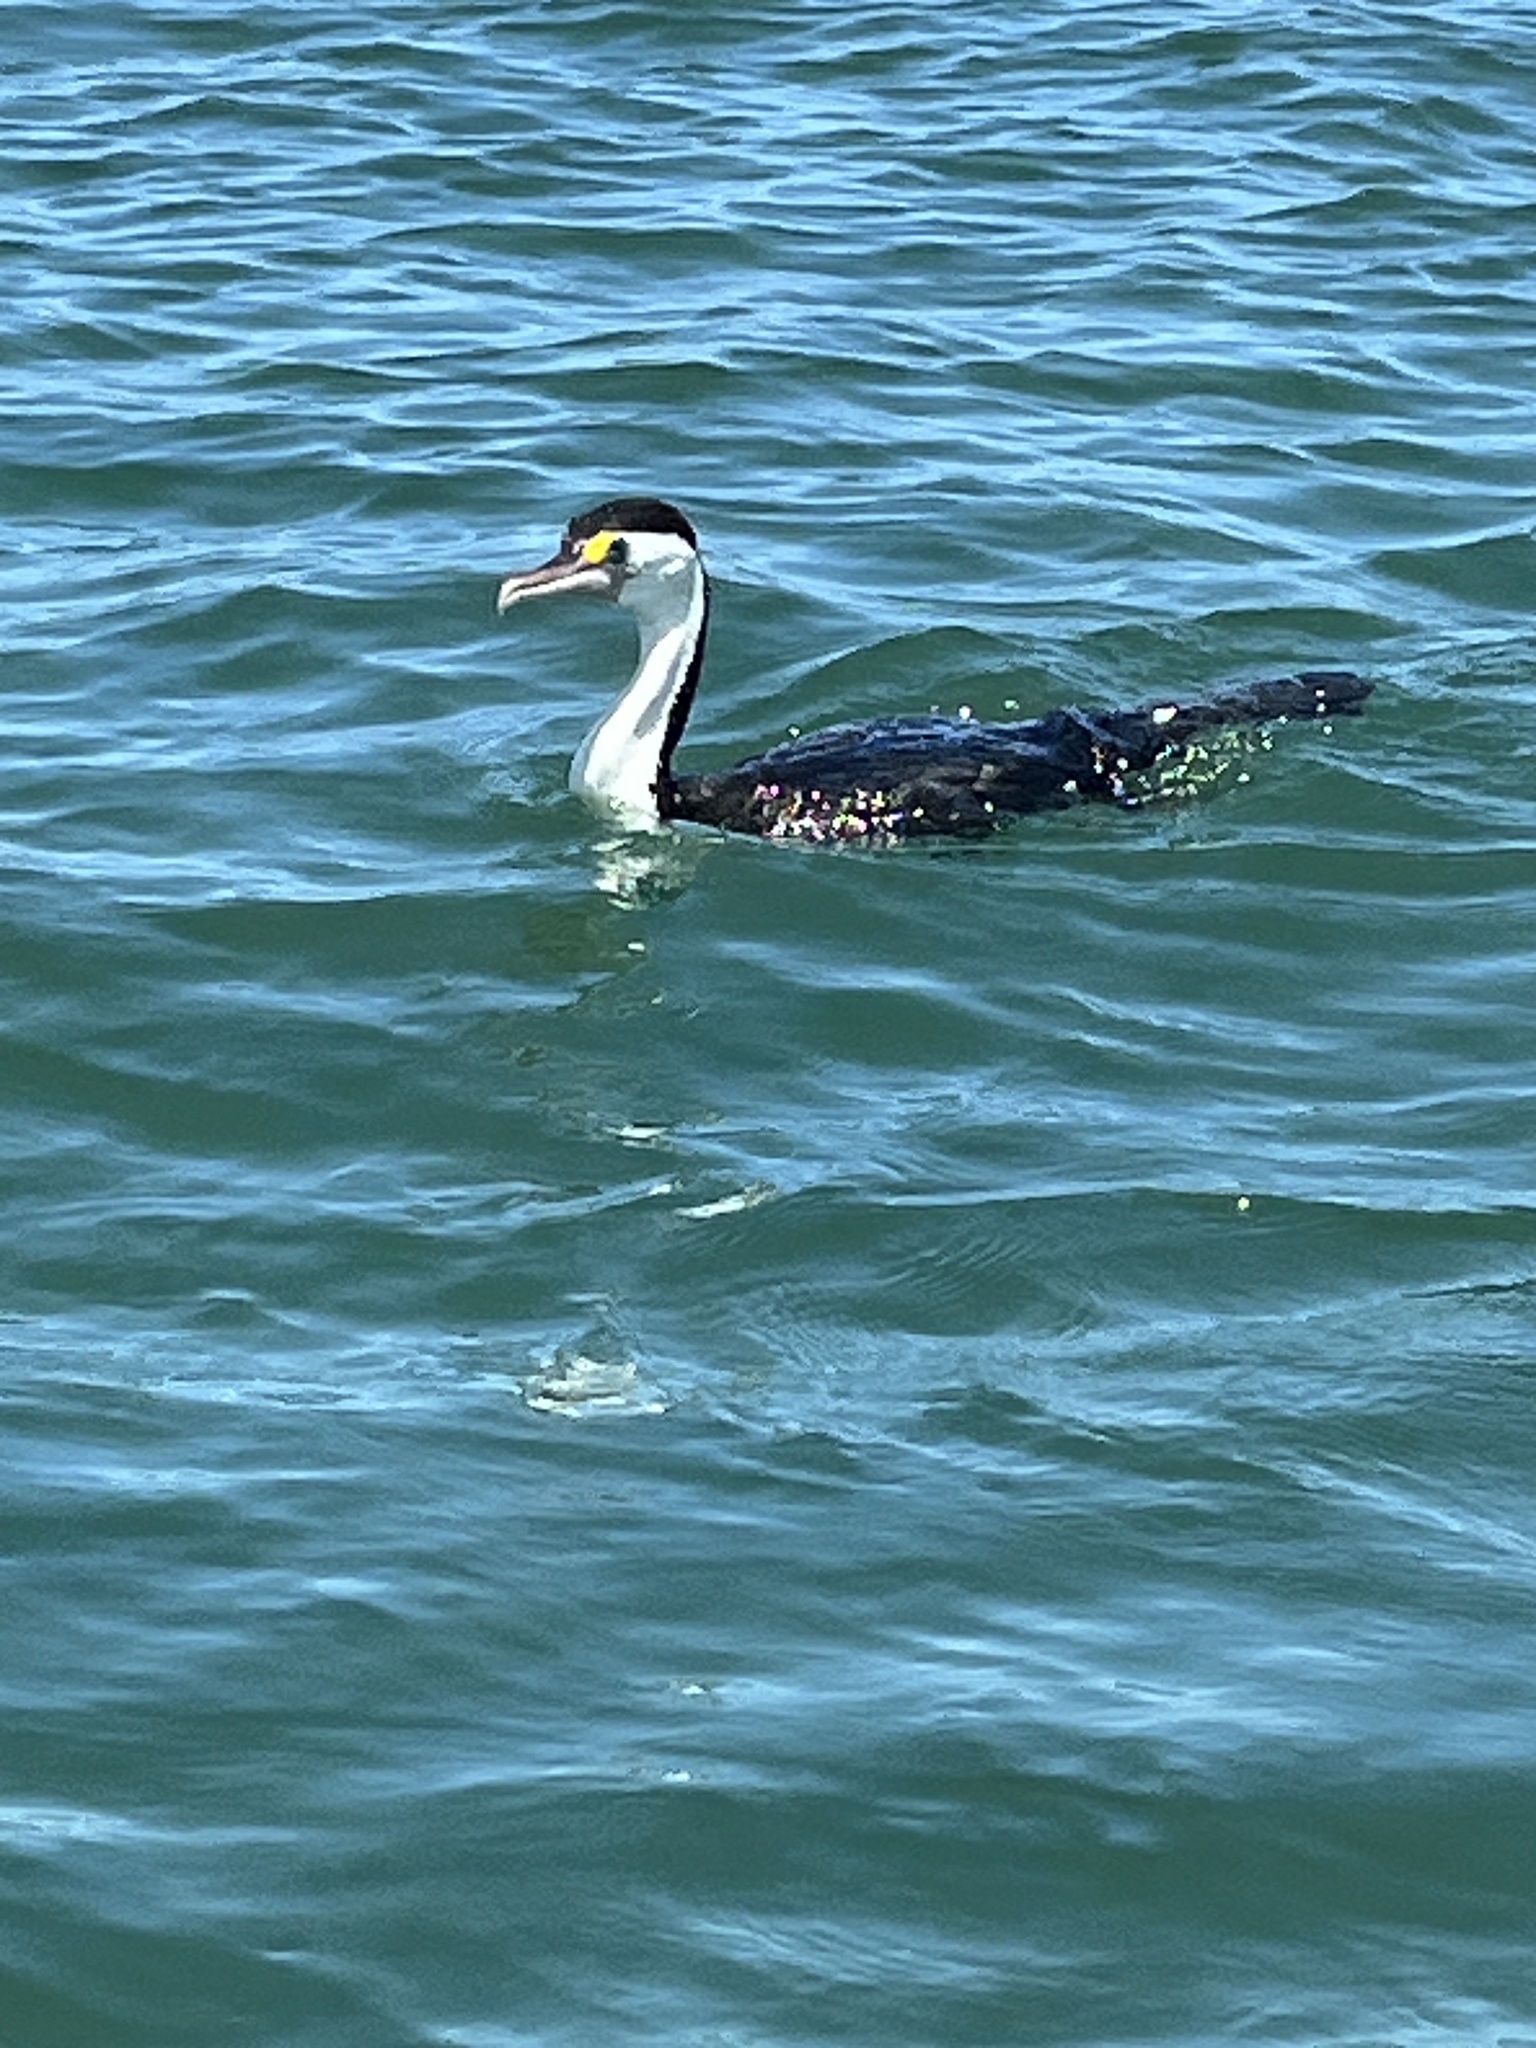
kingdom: Animalia
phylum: Chordata
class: Aves
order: Suliformes
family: Phalacrocoracidae
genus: Phalacrocorax
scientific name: Phalacrocorax varius
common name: Pied cormorant
